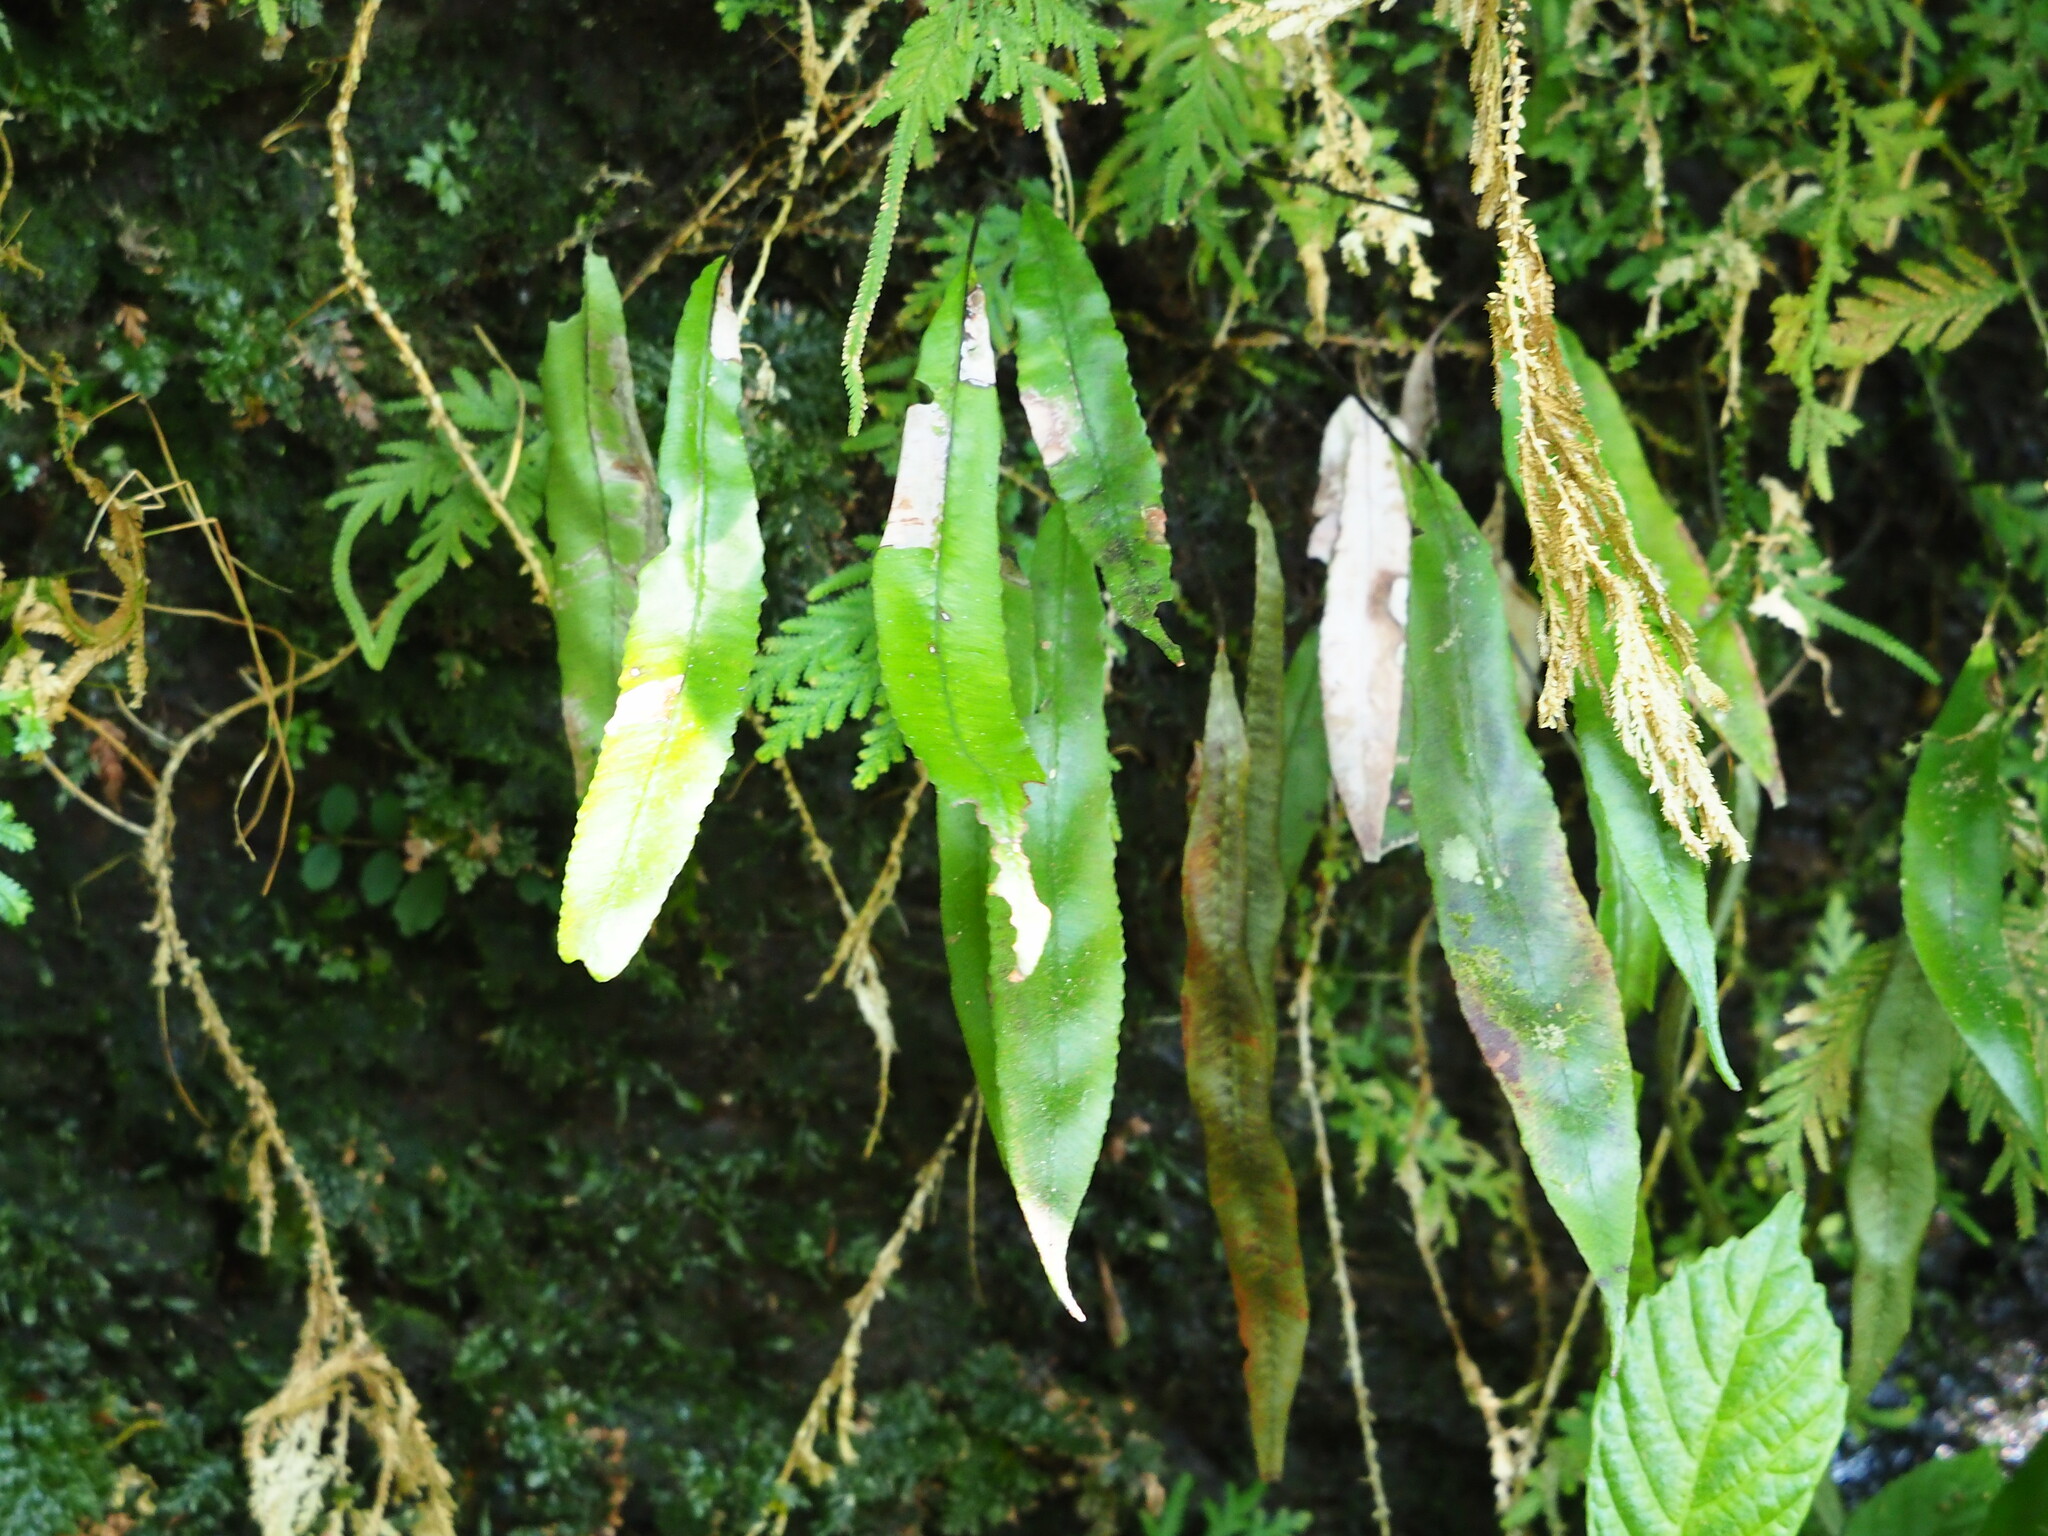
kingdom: Plantae
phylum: Tracheophyta
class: Polypodiopsida
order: Polypodiales
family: Athyriaceae
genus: Deparia
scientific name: Deparia lancea
